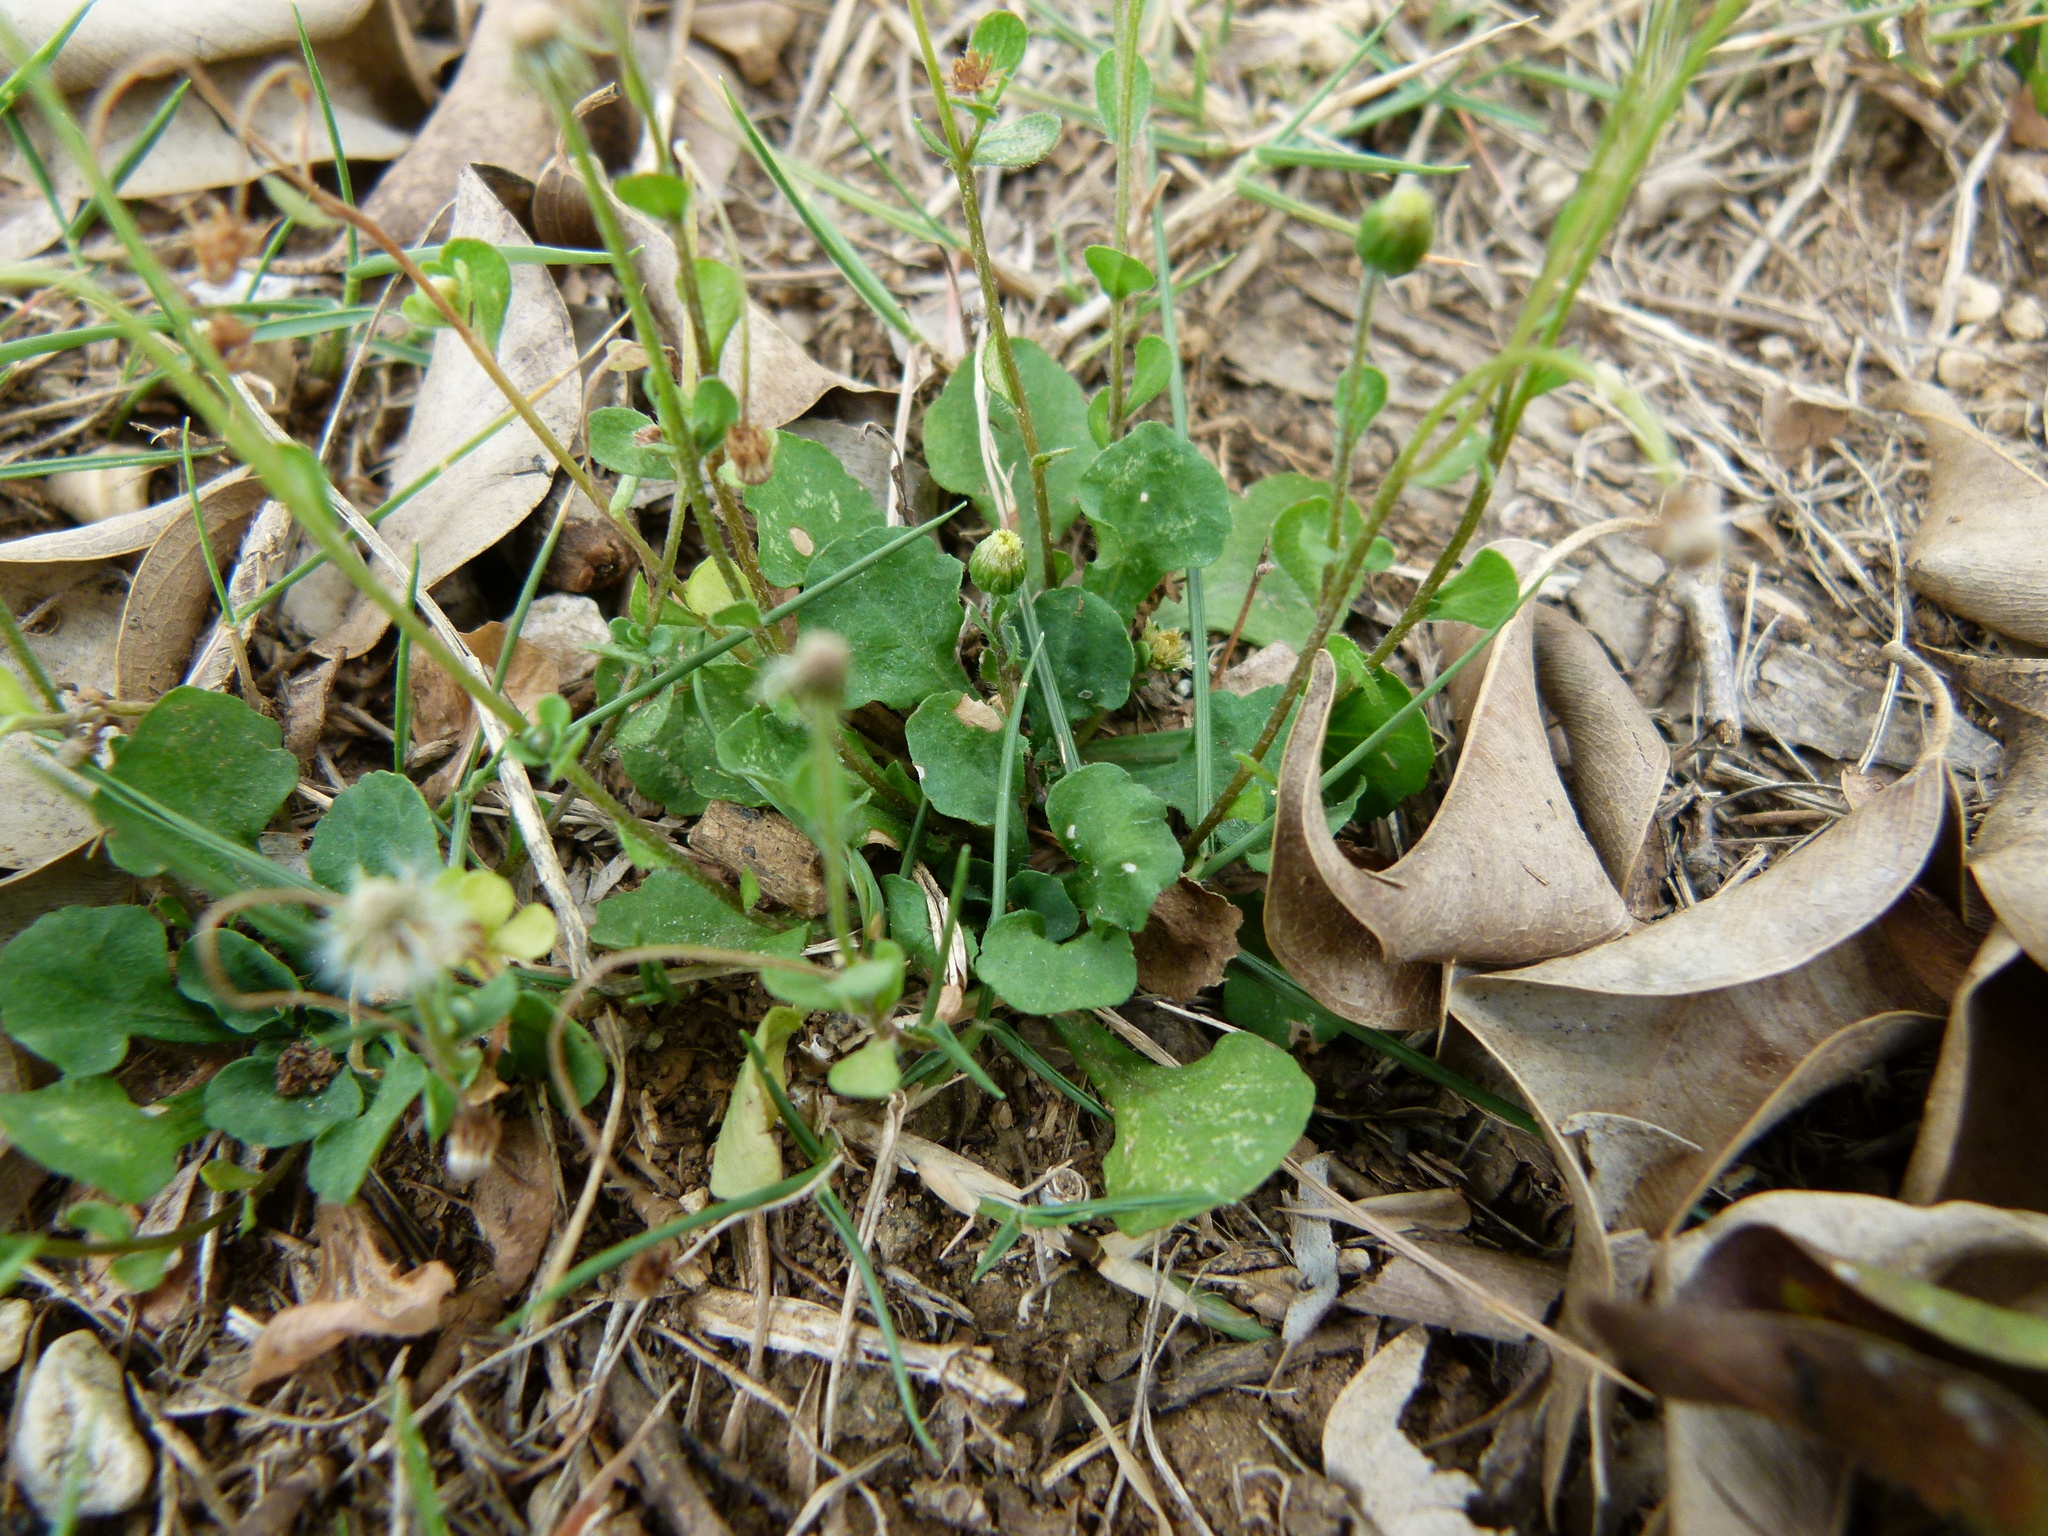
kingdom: Plantae
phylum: Tracheophyta
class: Magnoliopsida
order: Asterales
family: Asteraceae
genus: Erigeron
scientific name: Erigeron bellioides
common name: Bellorita
